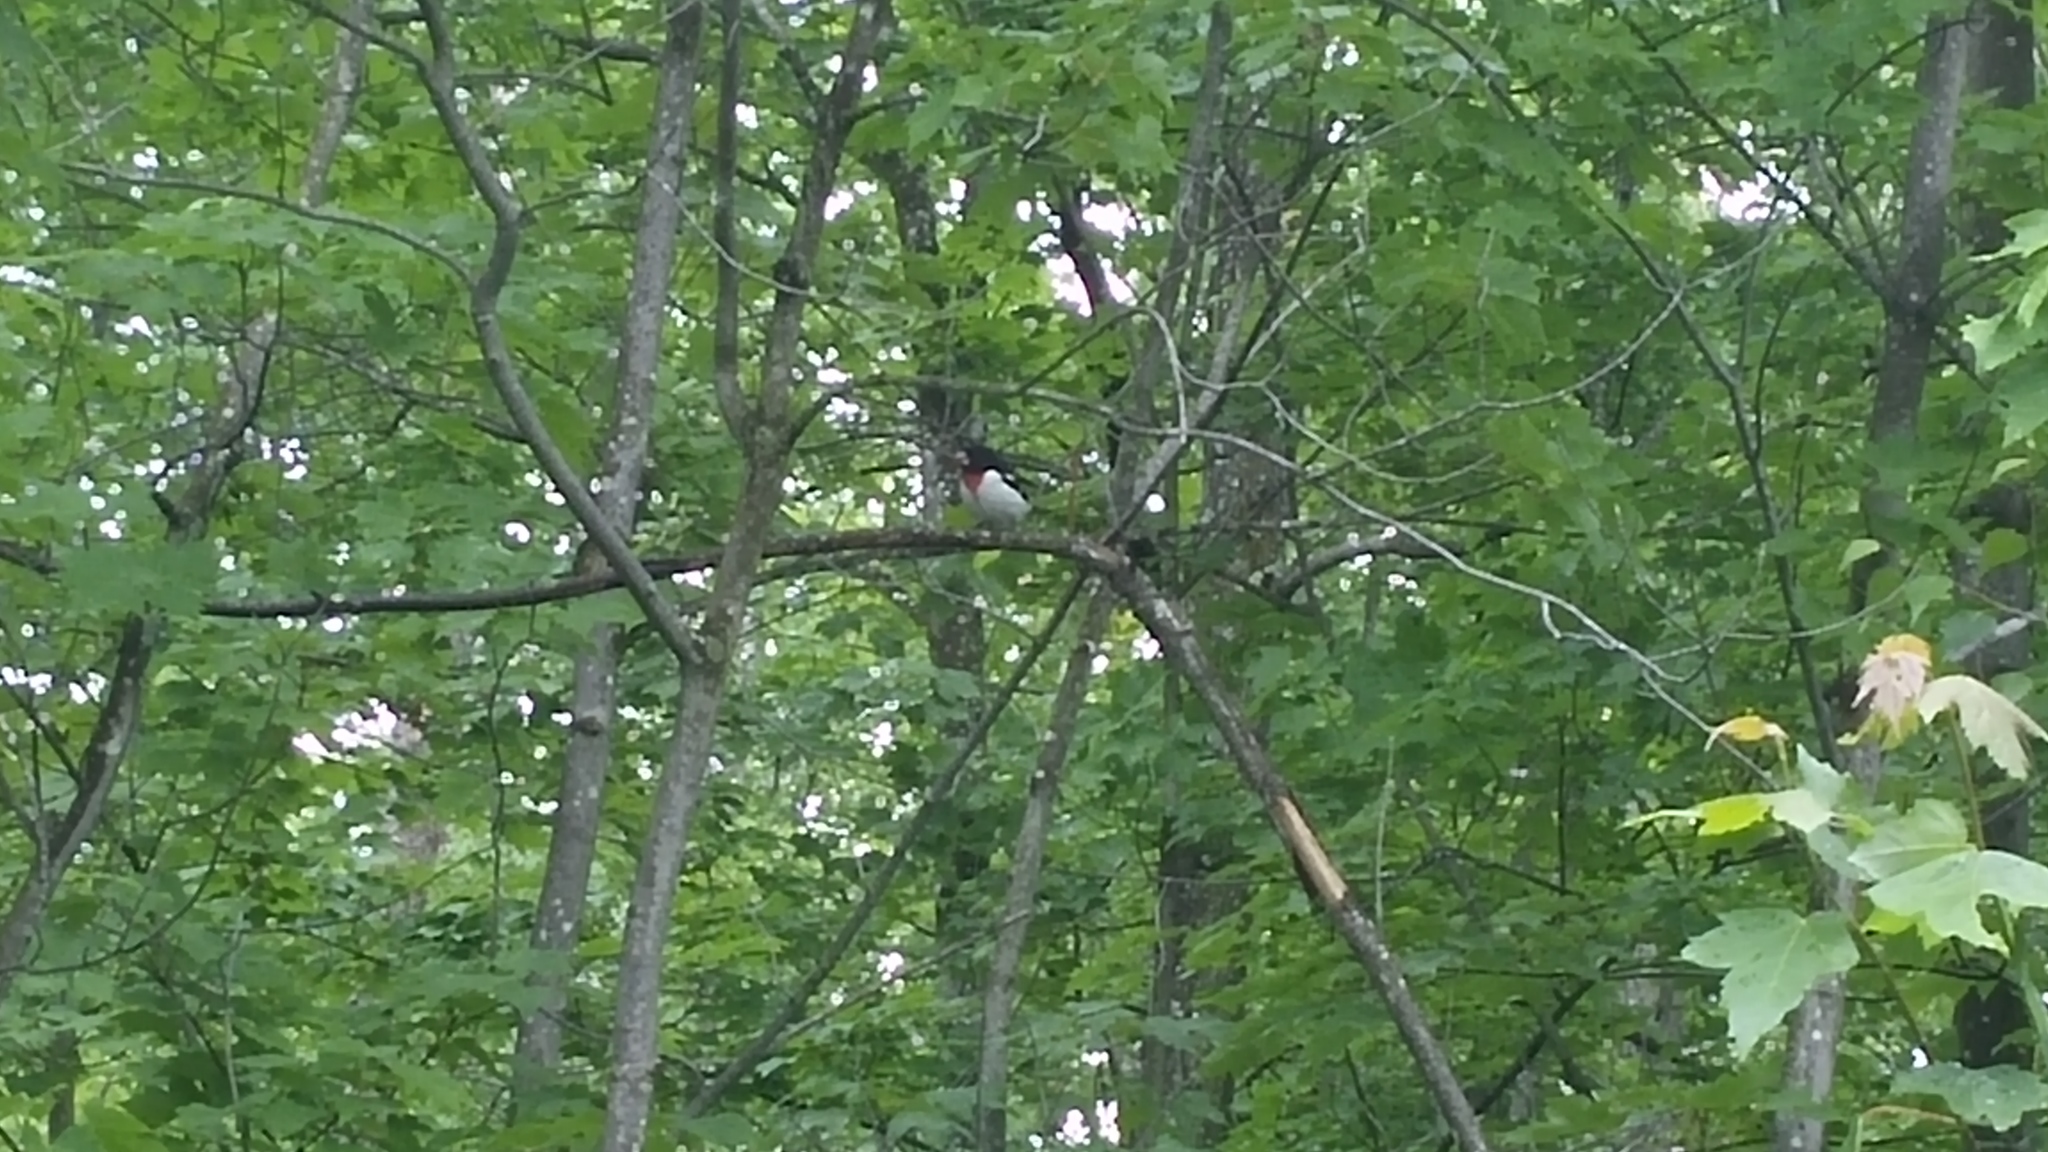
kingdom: Animalia
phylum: Chordata
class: Aves
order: Passeriformes
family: Cardinalidae
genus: Pheucticus
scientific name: Pheucticus ludovicianus
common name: Rose-breasted grosbeak
